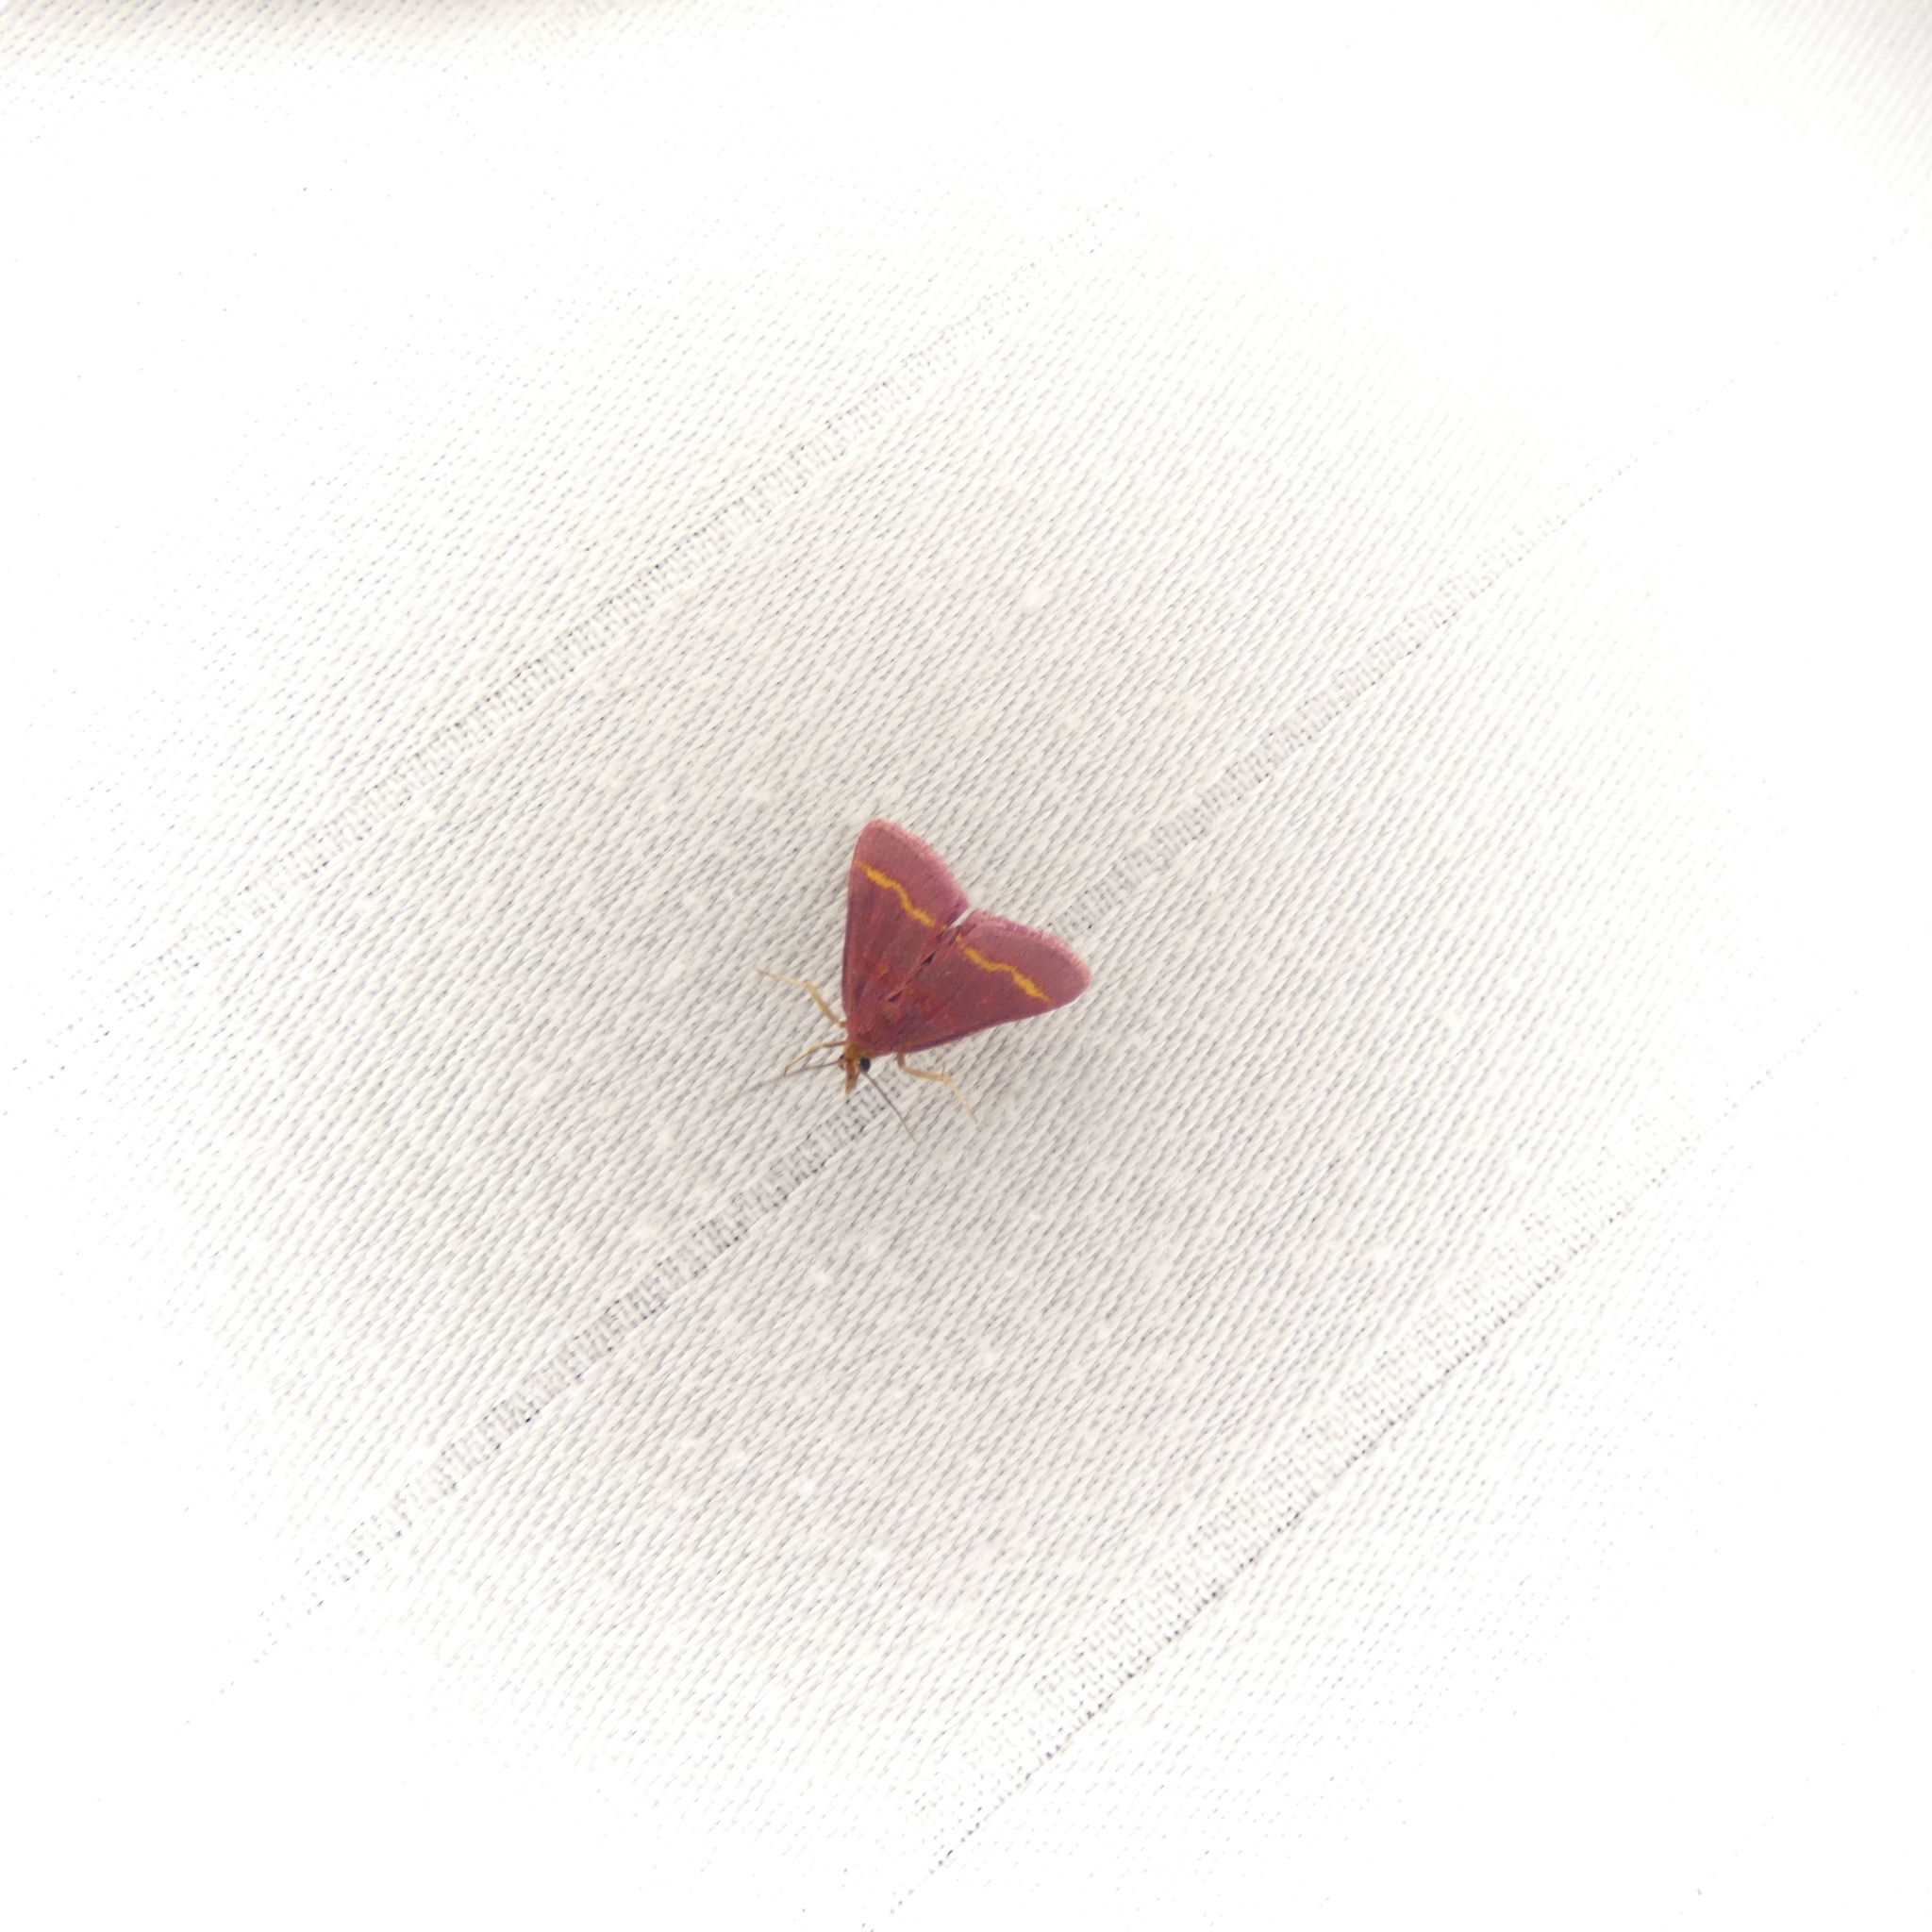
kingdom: Animalia
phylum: Arthropoda
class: Insecta
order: Lepidoptera
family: Crambidae
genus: Pyrausta
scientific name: Pyrausta pseuderosnealis
